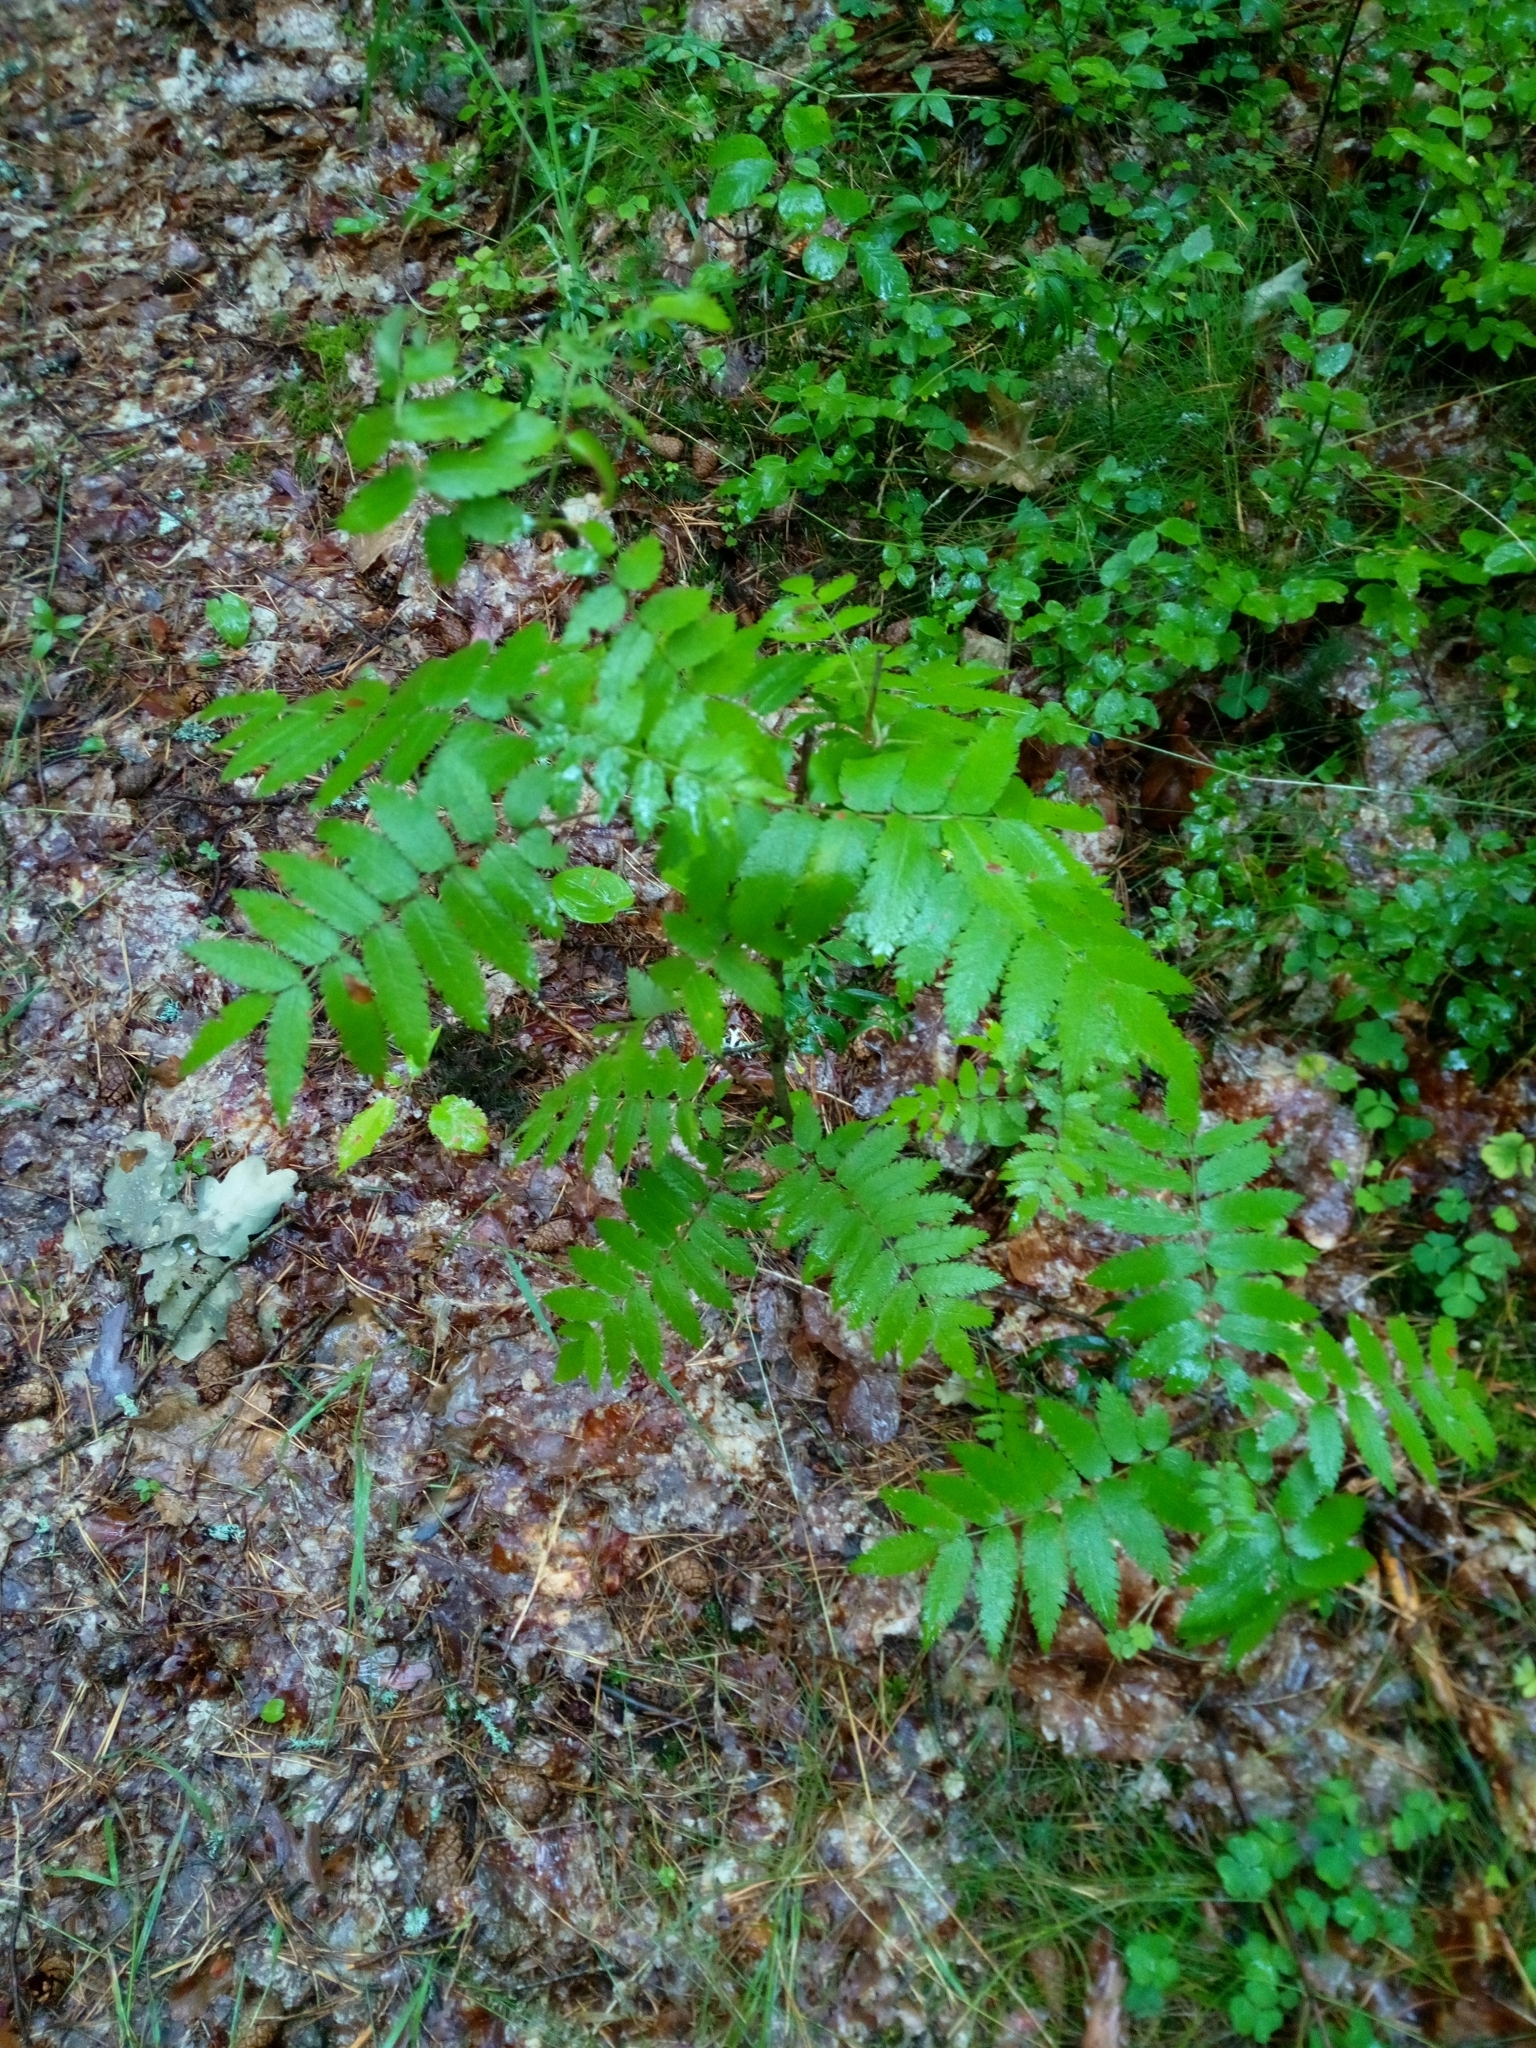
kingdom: Plantae
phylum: Tracheophyta
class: Magnoliopsida
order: Rosales
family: Rosaceae
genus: Sorbus
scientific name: Sorbus aucuparia
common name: Rowan
